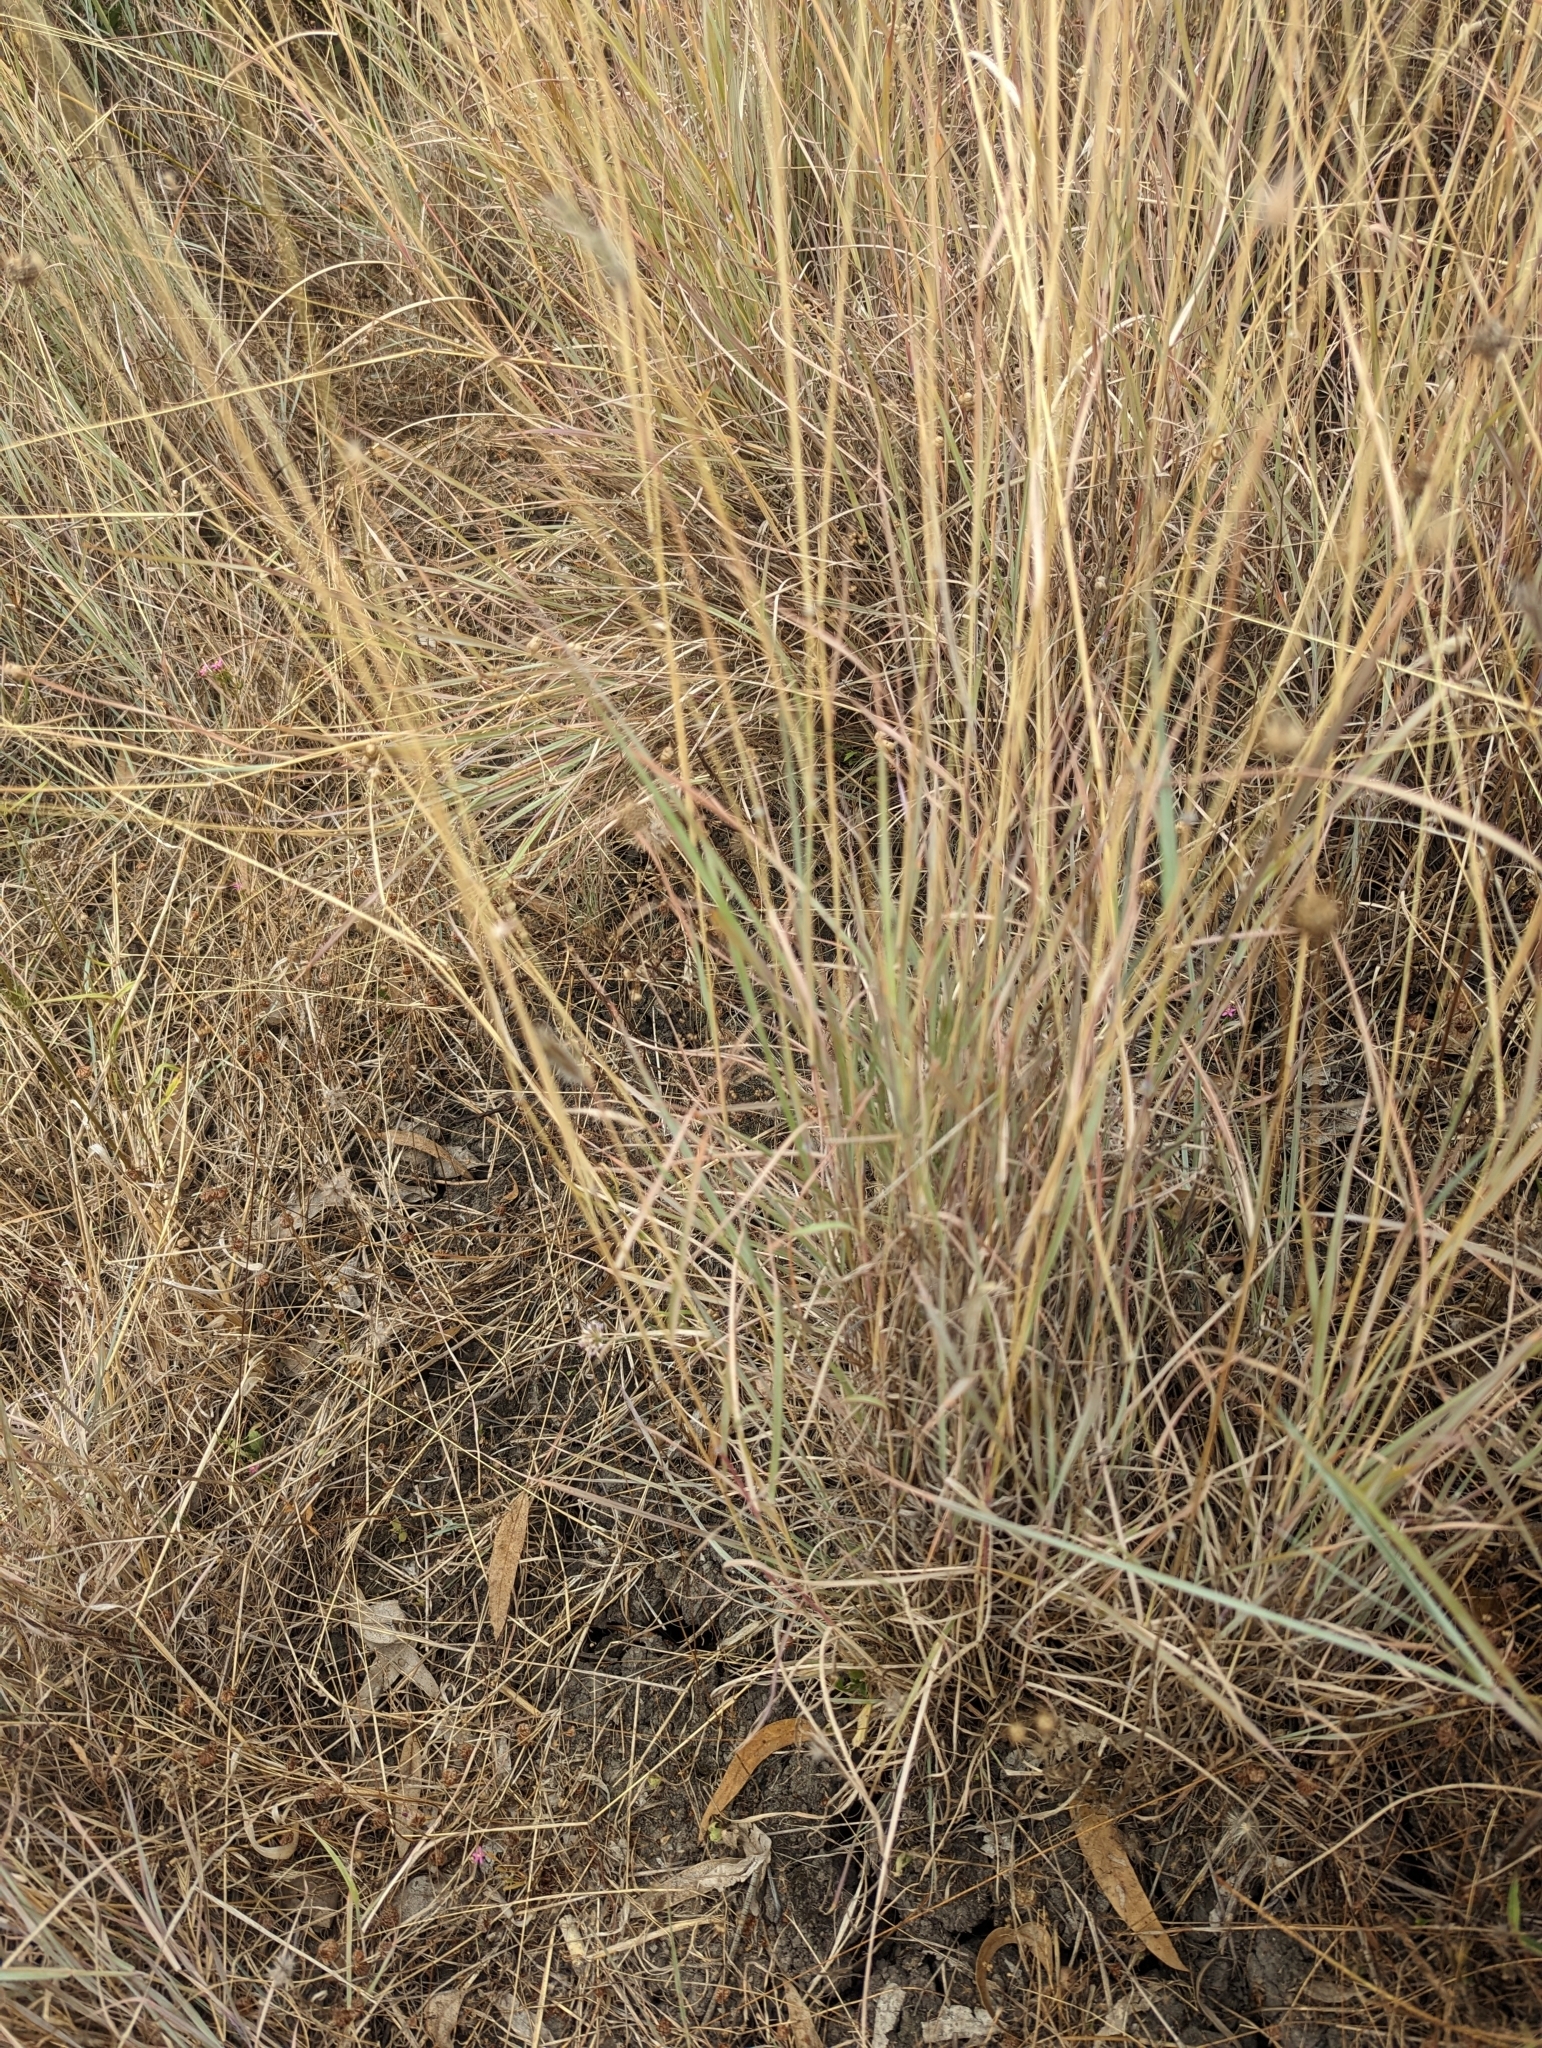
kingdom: Plantae
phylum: Tracheophyta
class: Liliopsida
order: Poales
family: Poaceae
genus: Dichanthium
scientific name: Dichanthium sericeum
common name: Silky bluestem
